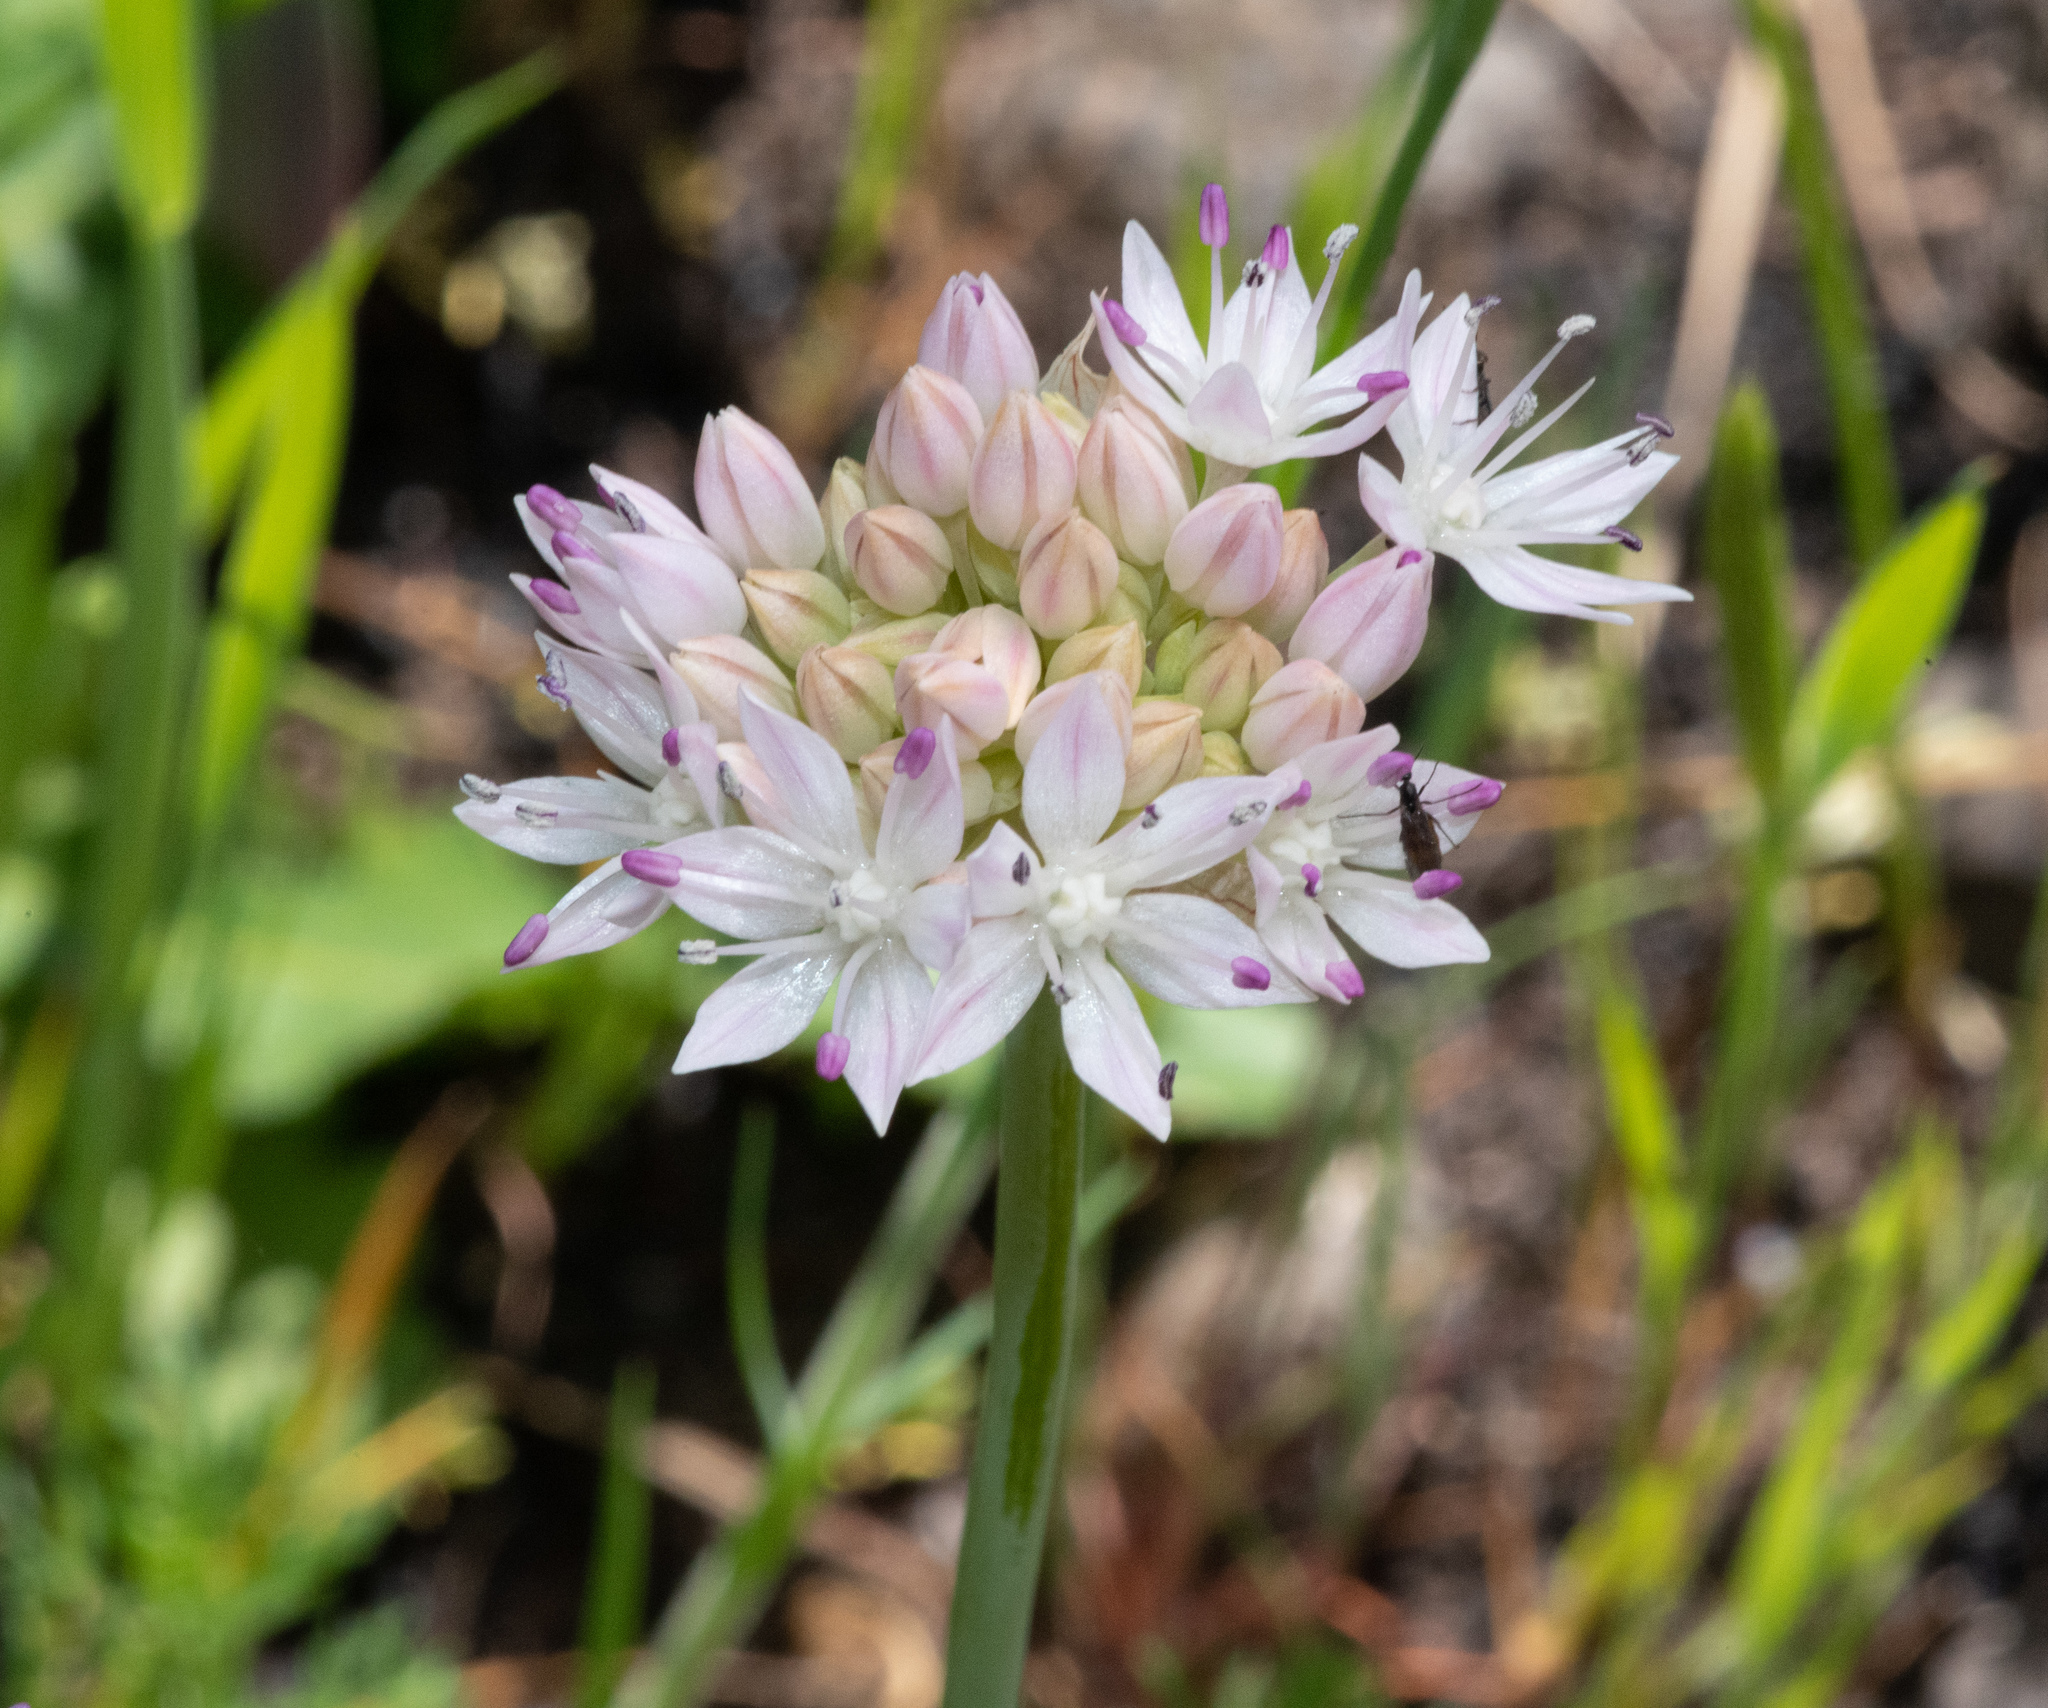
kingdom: Plantae
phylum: Tracheophyta
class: Liliopsida
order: Asparagales
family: Amaryllidaceae
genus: Allium
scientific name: Allium amplectens
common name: Narrow-leaved onion
